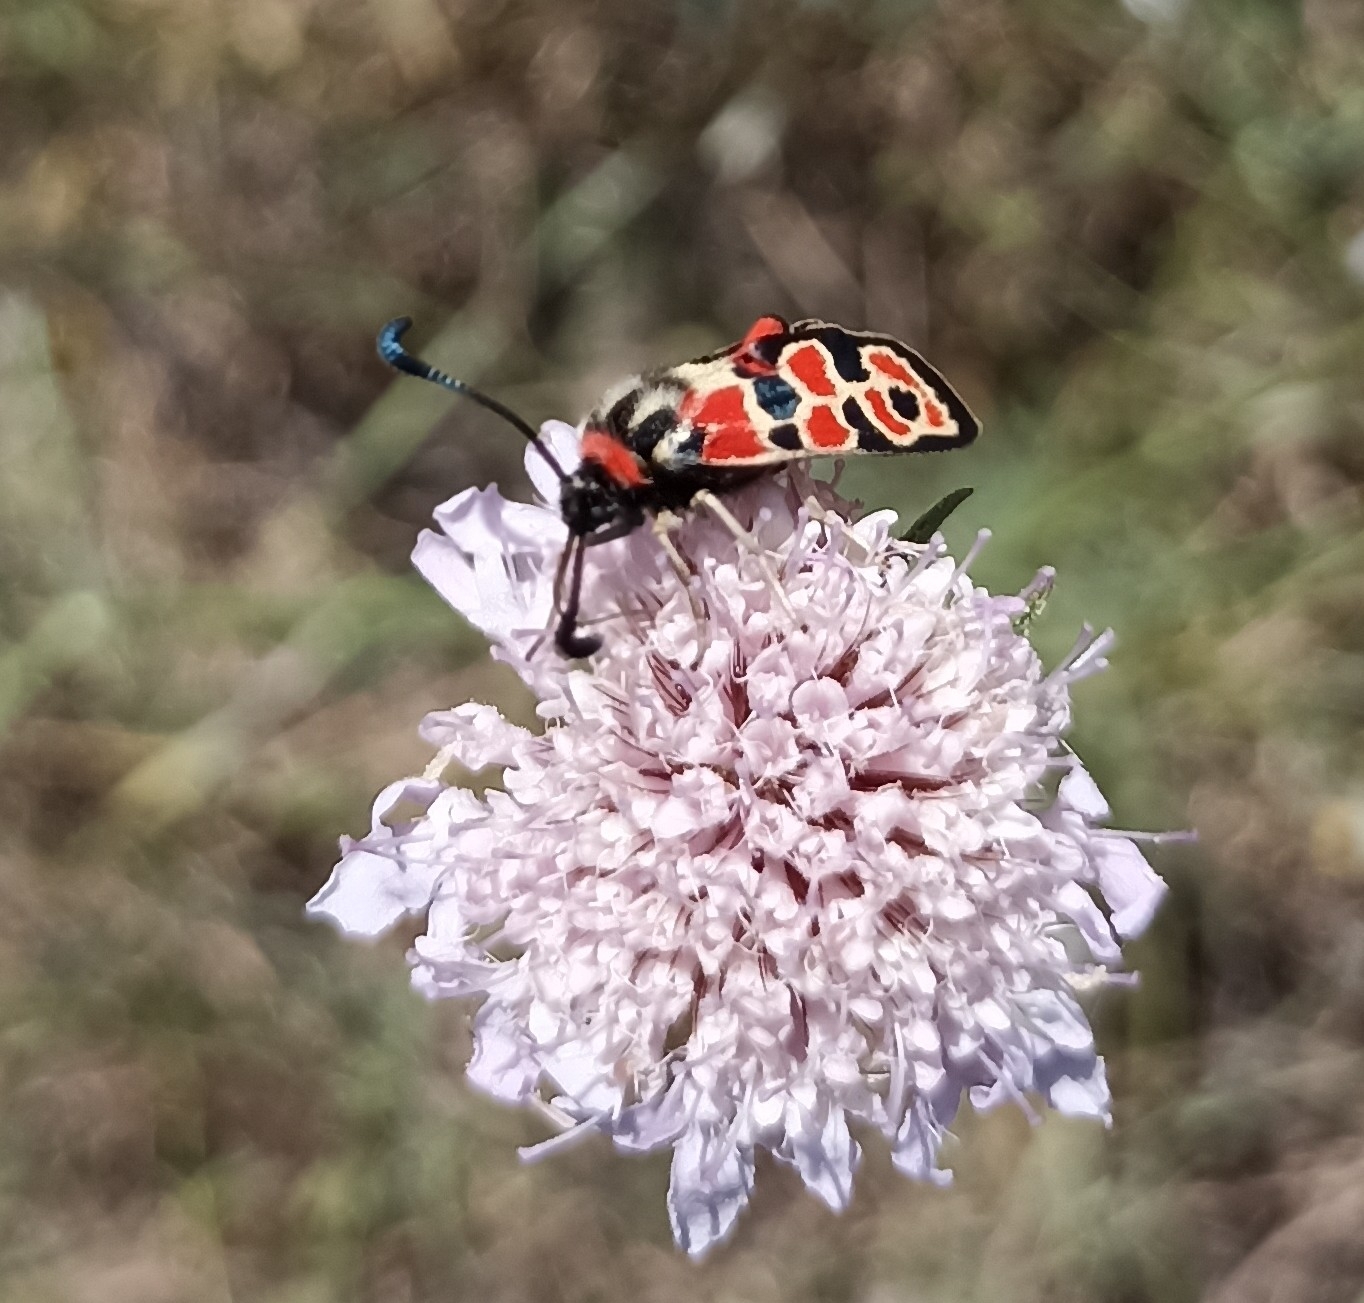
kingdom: Animalia
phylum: Arthropoda
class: Insecta
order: Lepidoptera
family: Zygaenidae
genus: Zygaena
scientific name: Zygaena fausta
